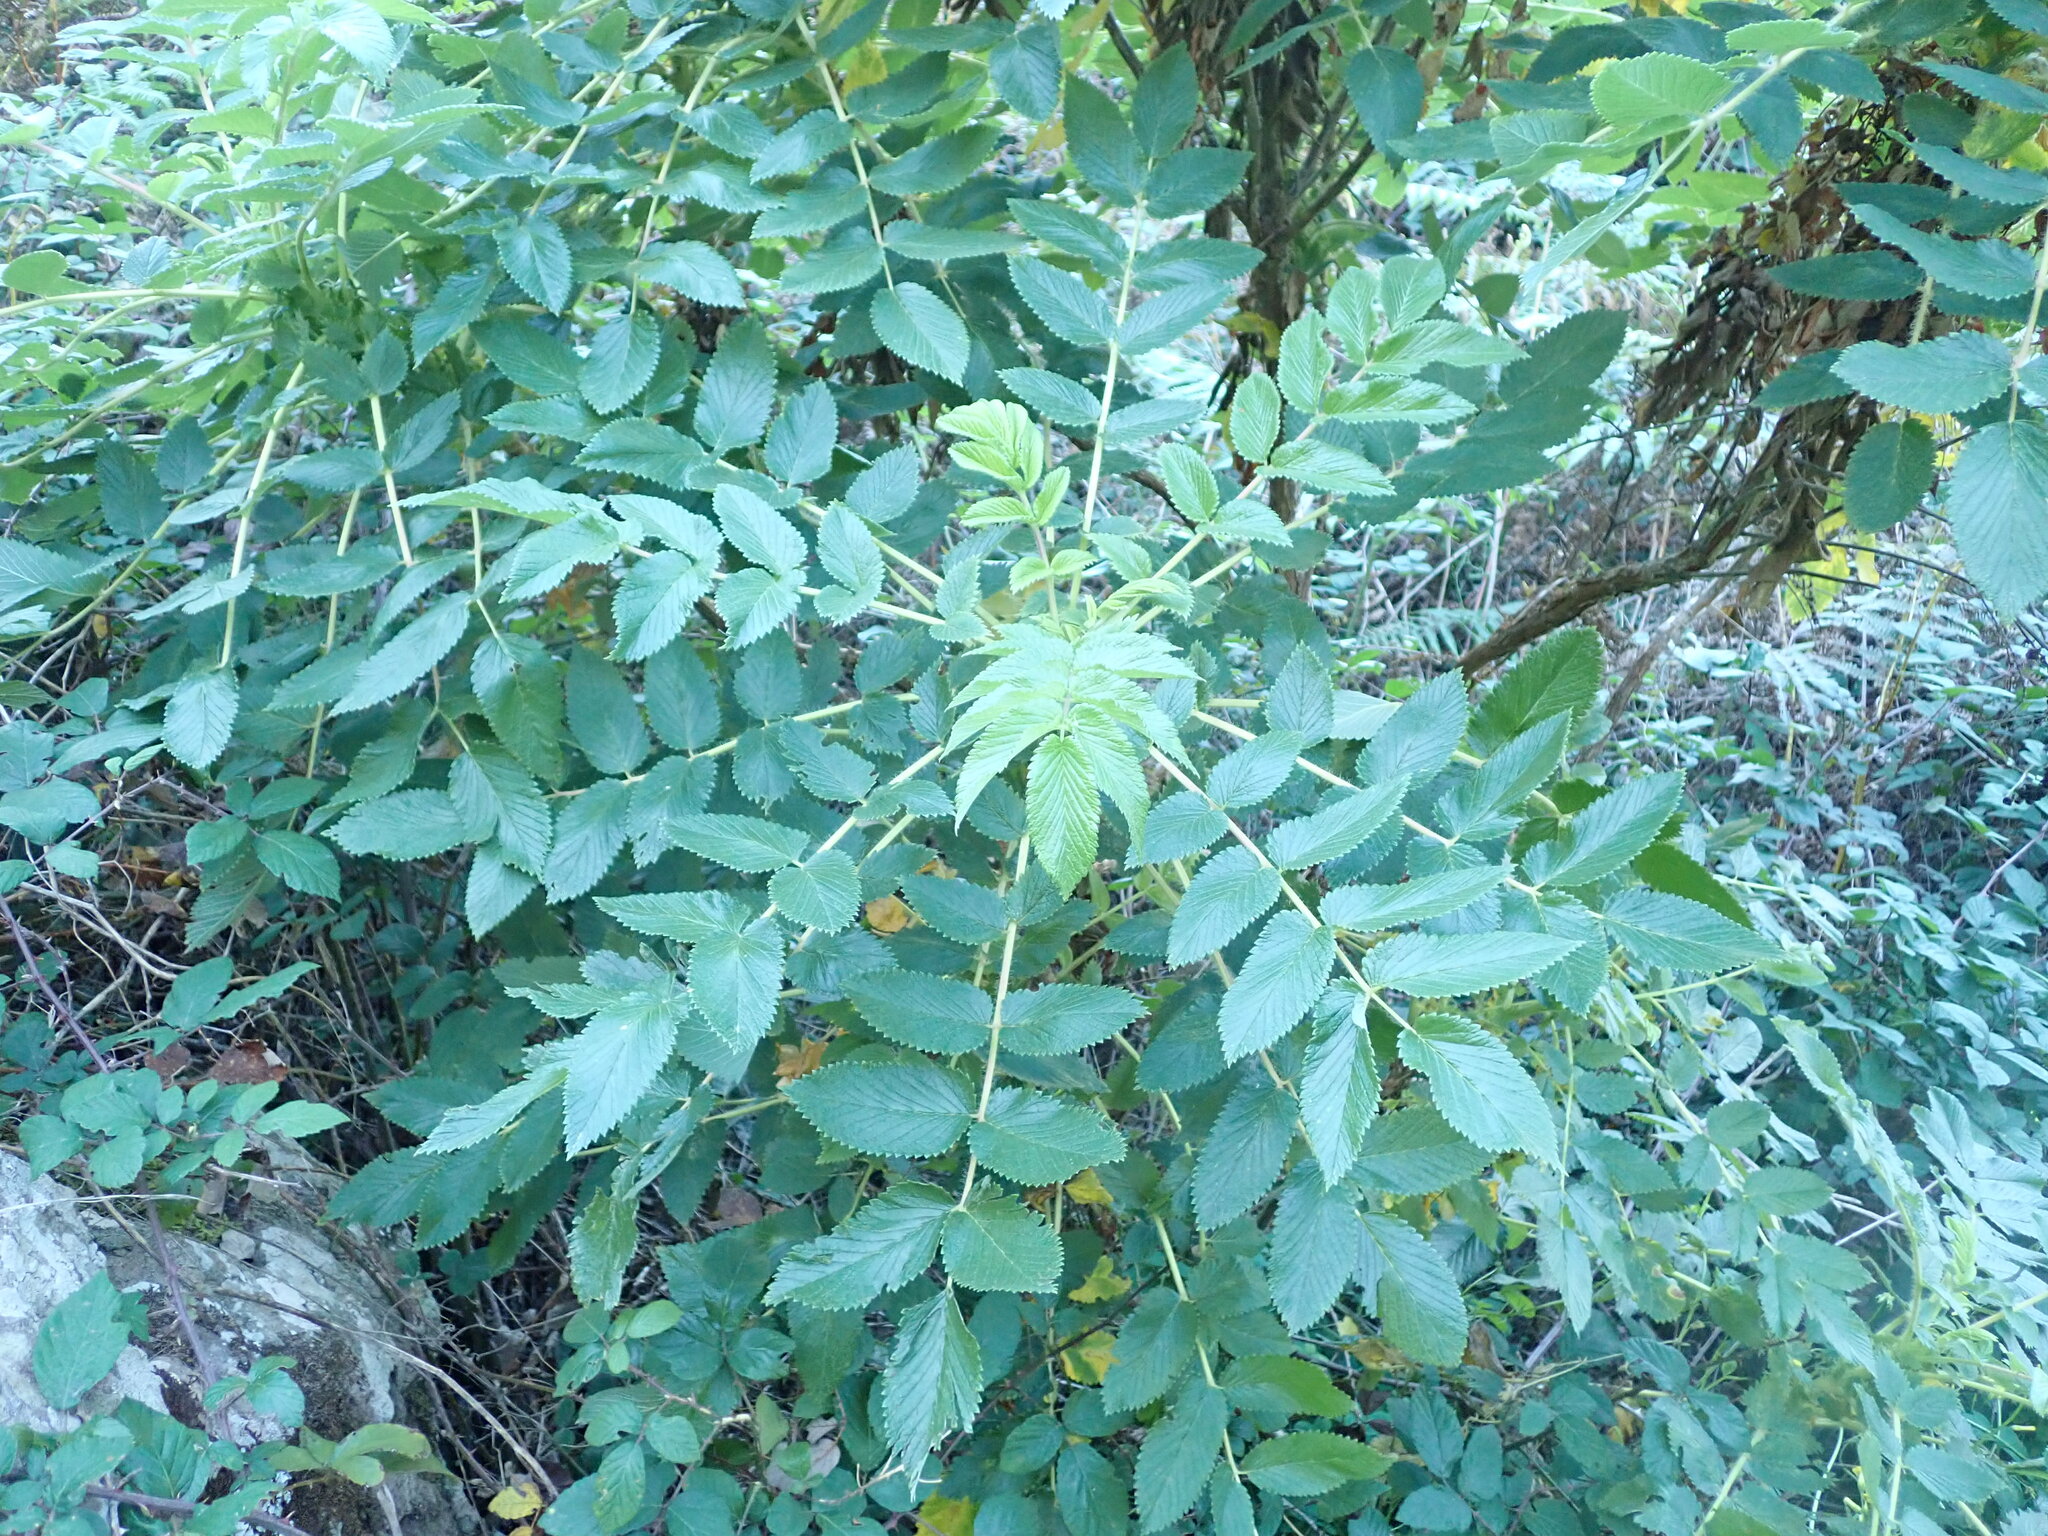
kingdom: Plantae
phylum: Tracheophyta
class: Magnoliopsida
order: Rosales
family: Rosaceae
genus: Bencomia
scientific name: Bencomia caudata
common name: Bencomia
